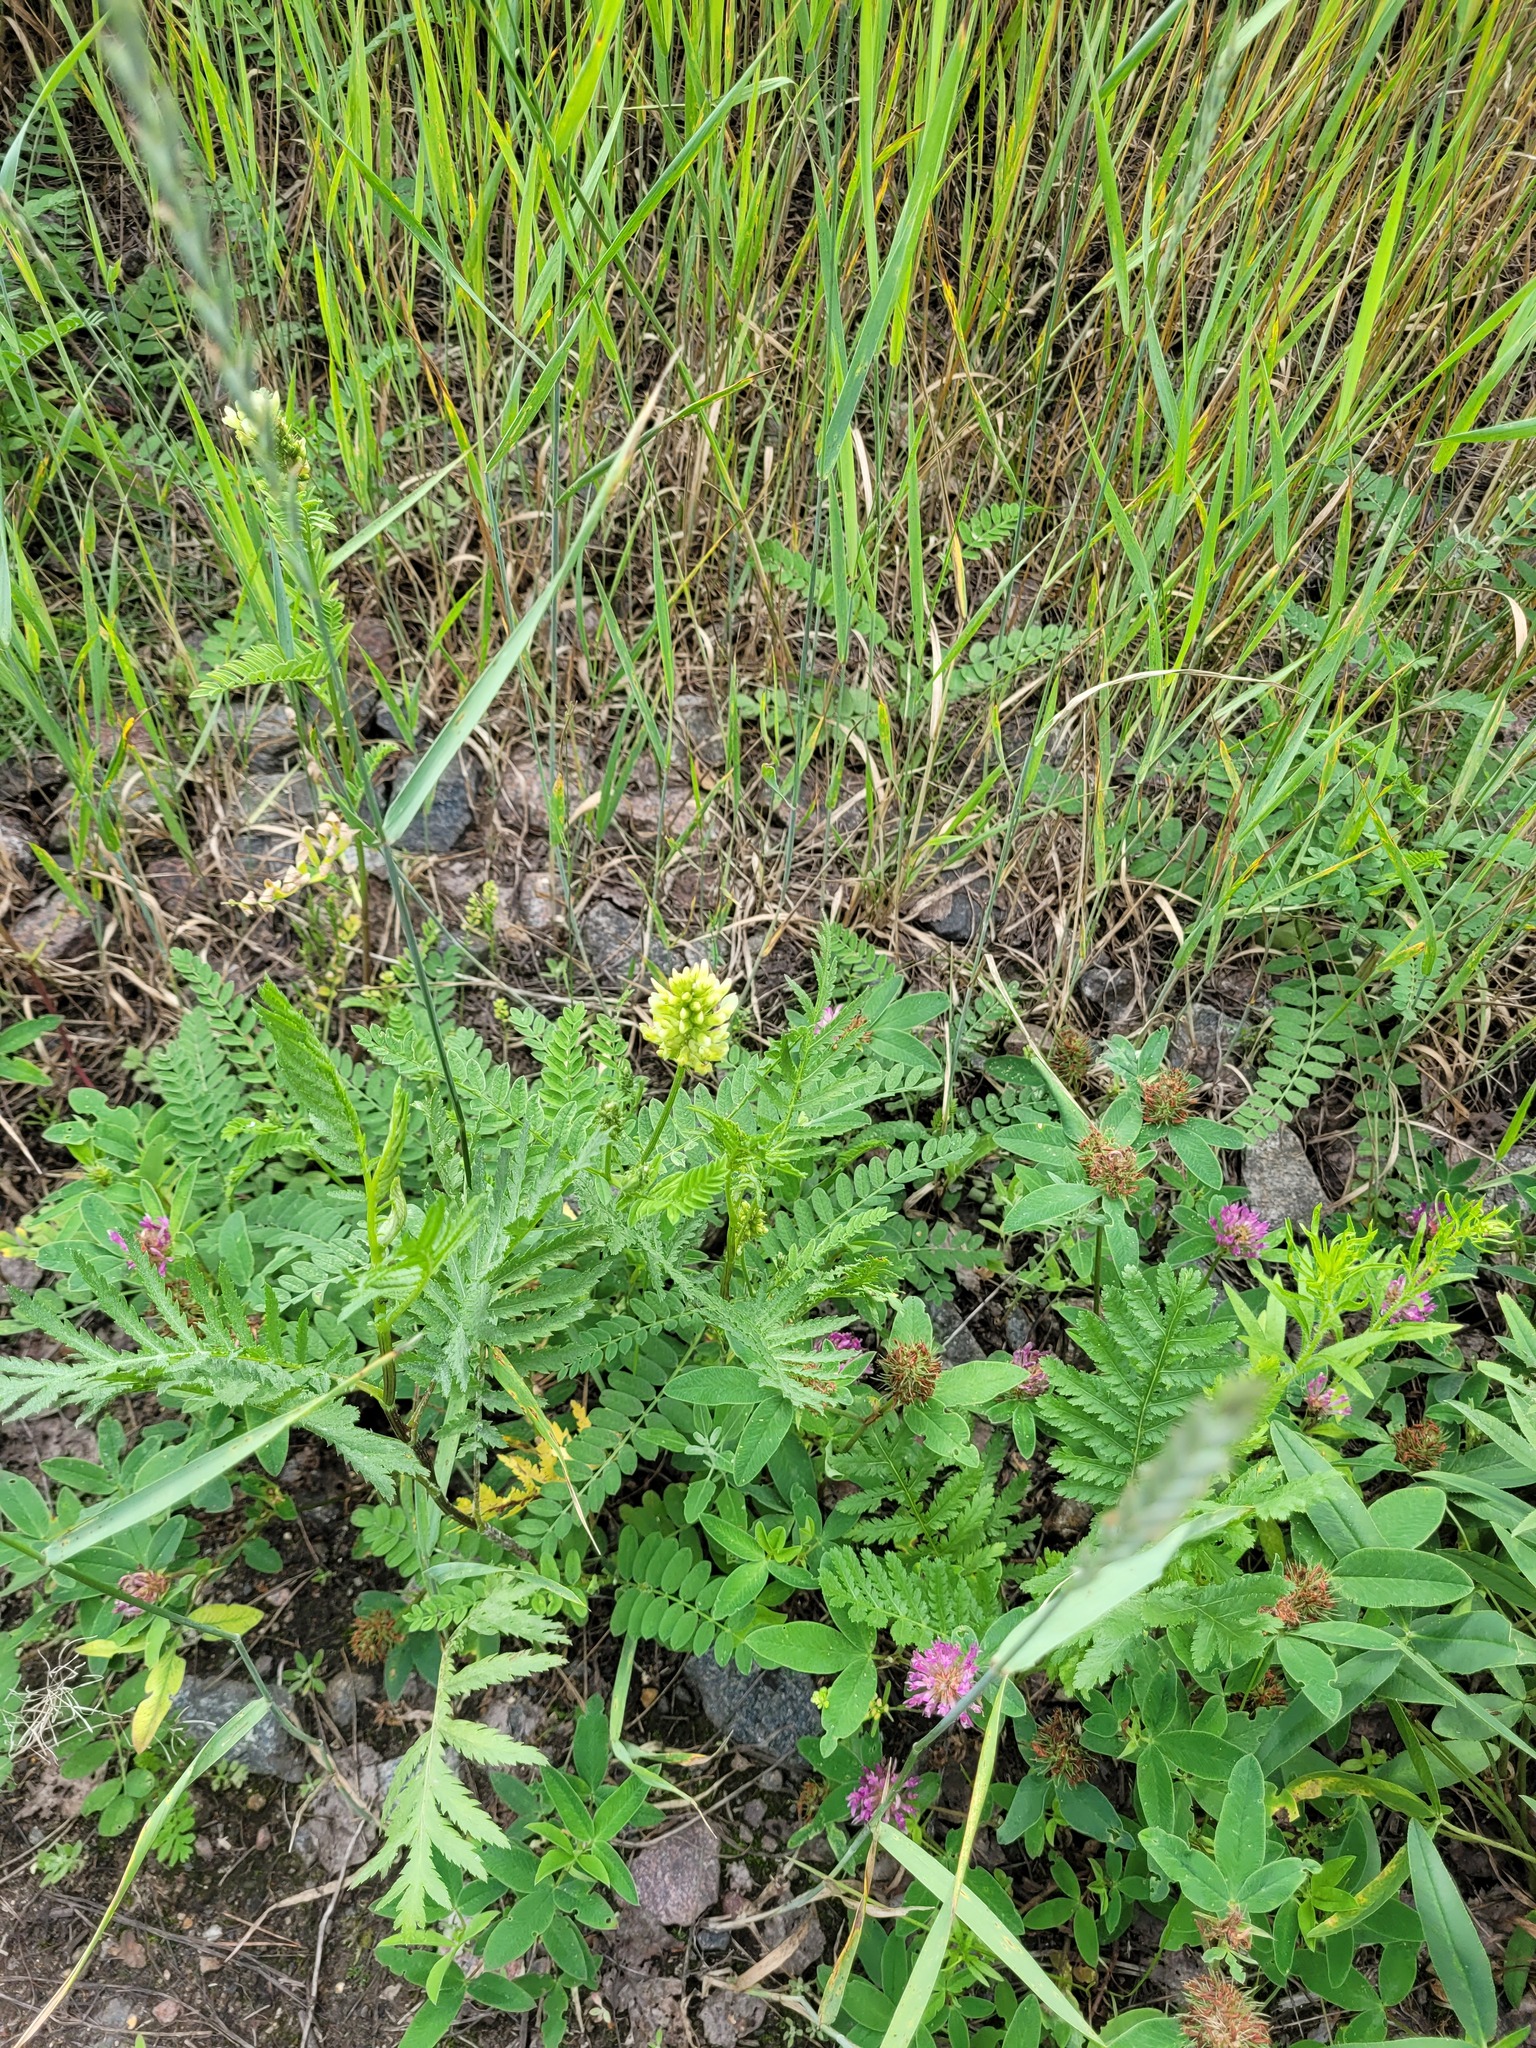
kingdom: Plantae
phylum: Tracheophyta
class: Magnoliopsida
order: Fabales
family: Fabaceae
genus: Astragalus
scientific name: Astragalus cicer
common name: Chick-pea milk-vetch
